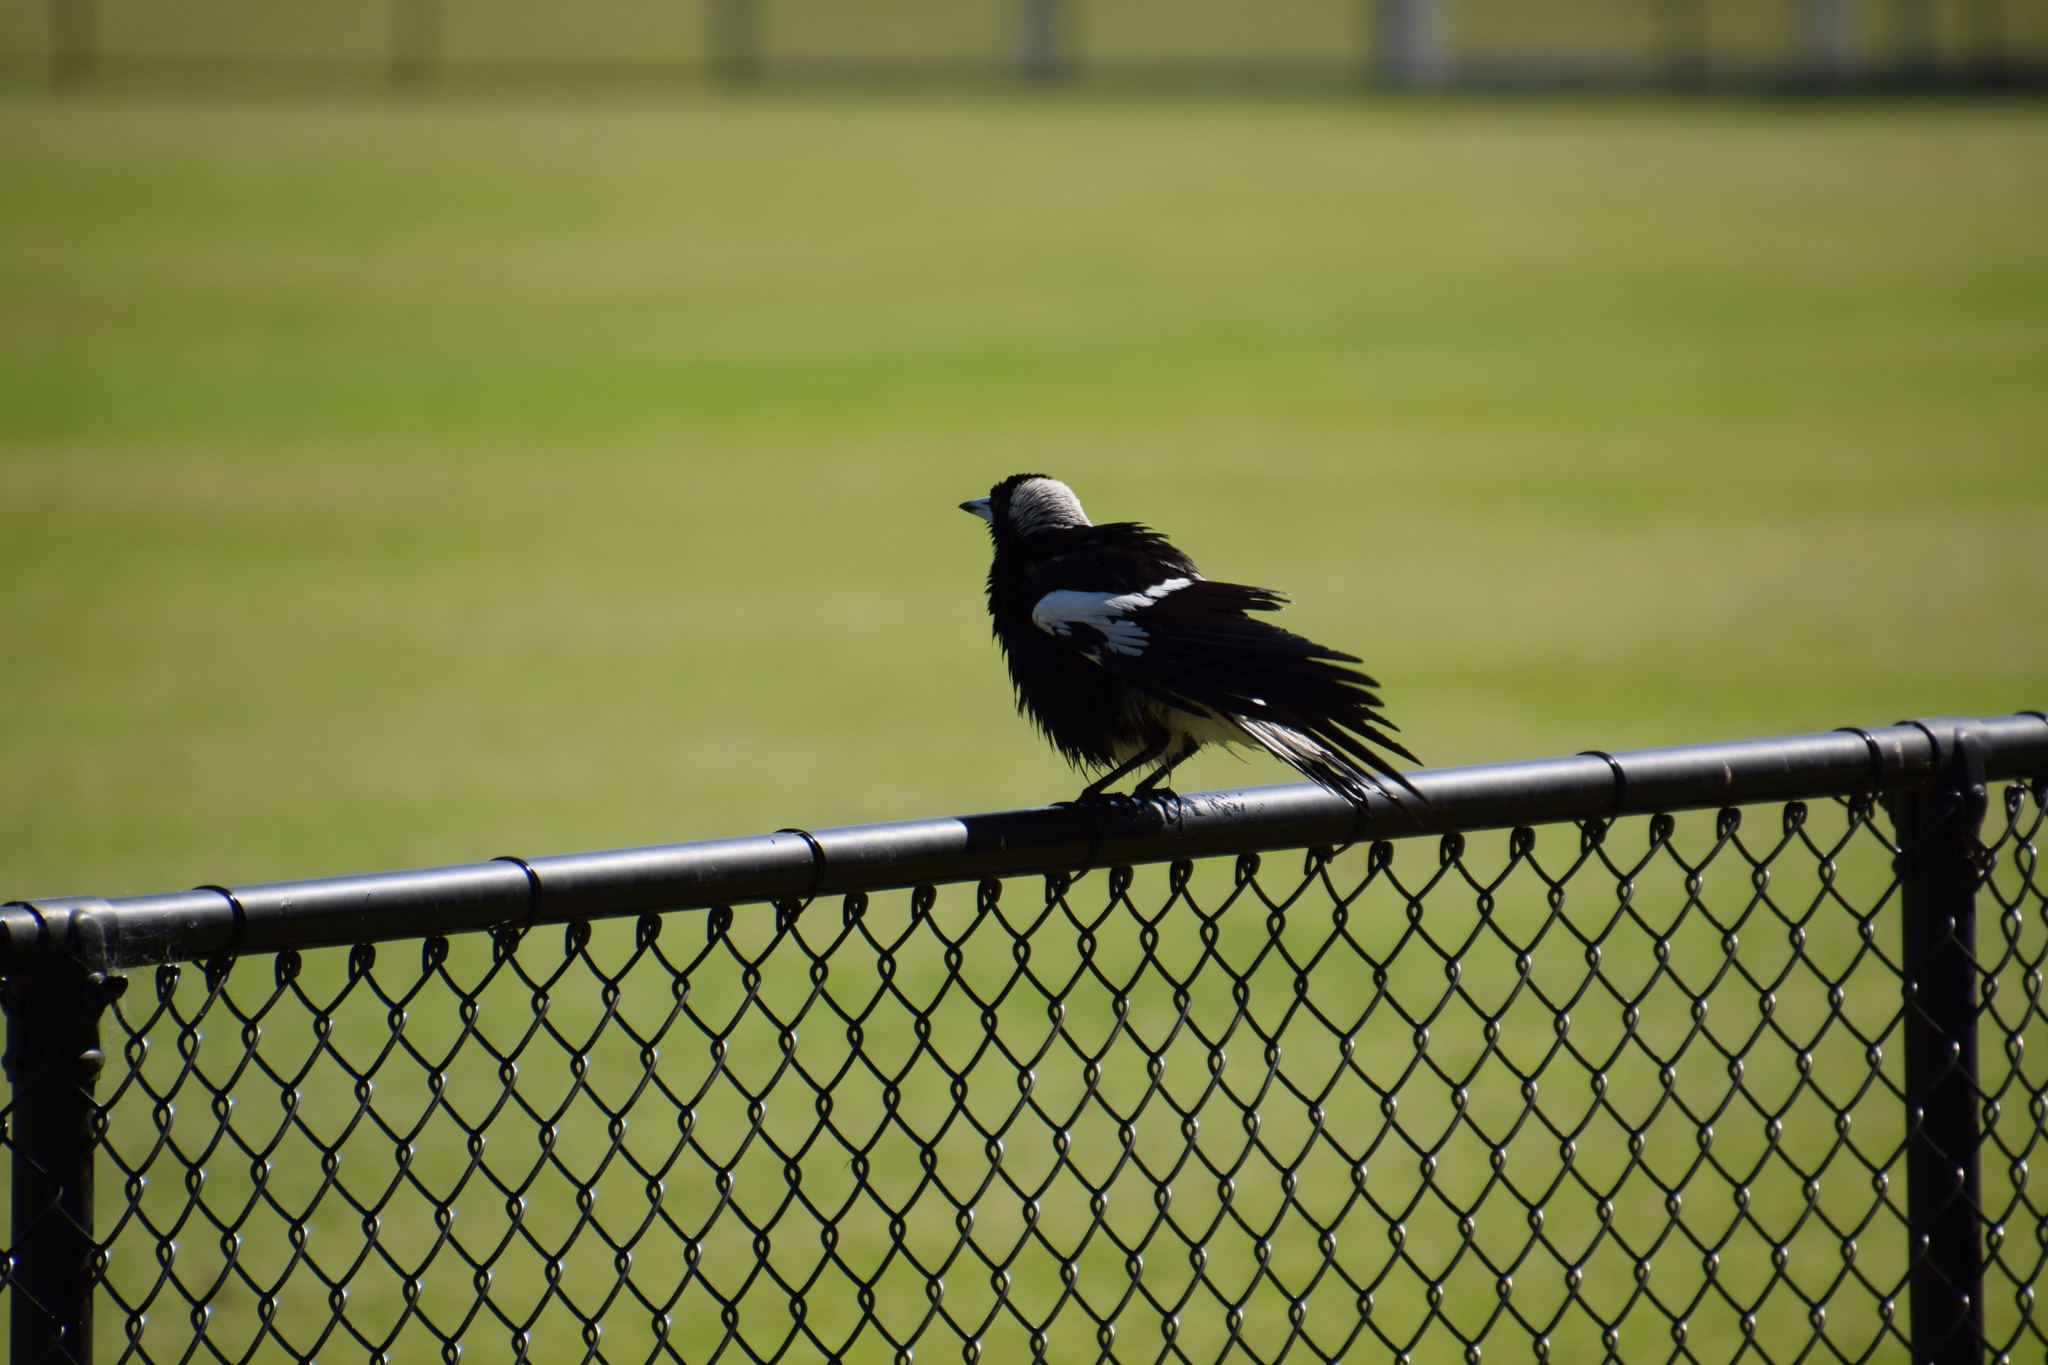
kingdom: Animalia
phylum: Chordata
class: Aves
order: Passeriformes
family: Cracticidae
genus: Gymnorhina
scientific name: Gymnorhina tibicen
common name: Australian magpie
